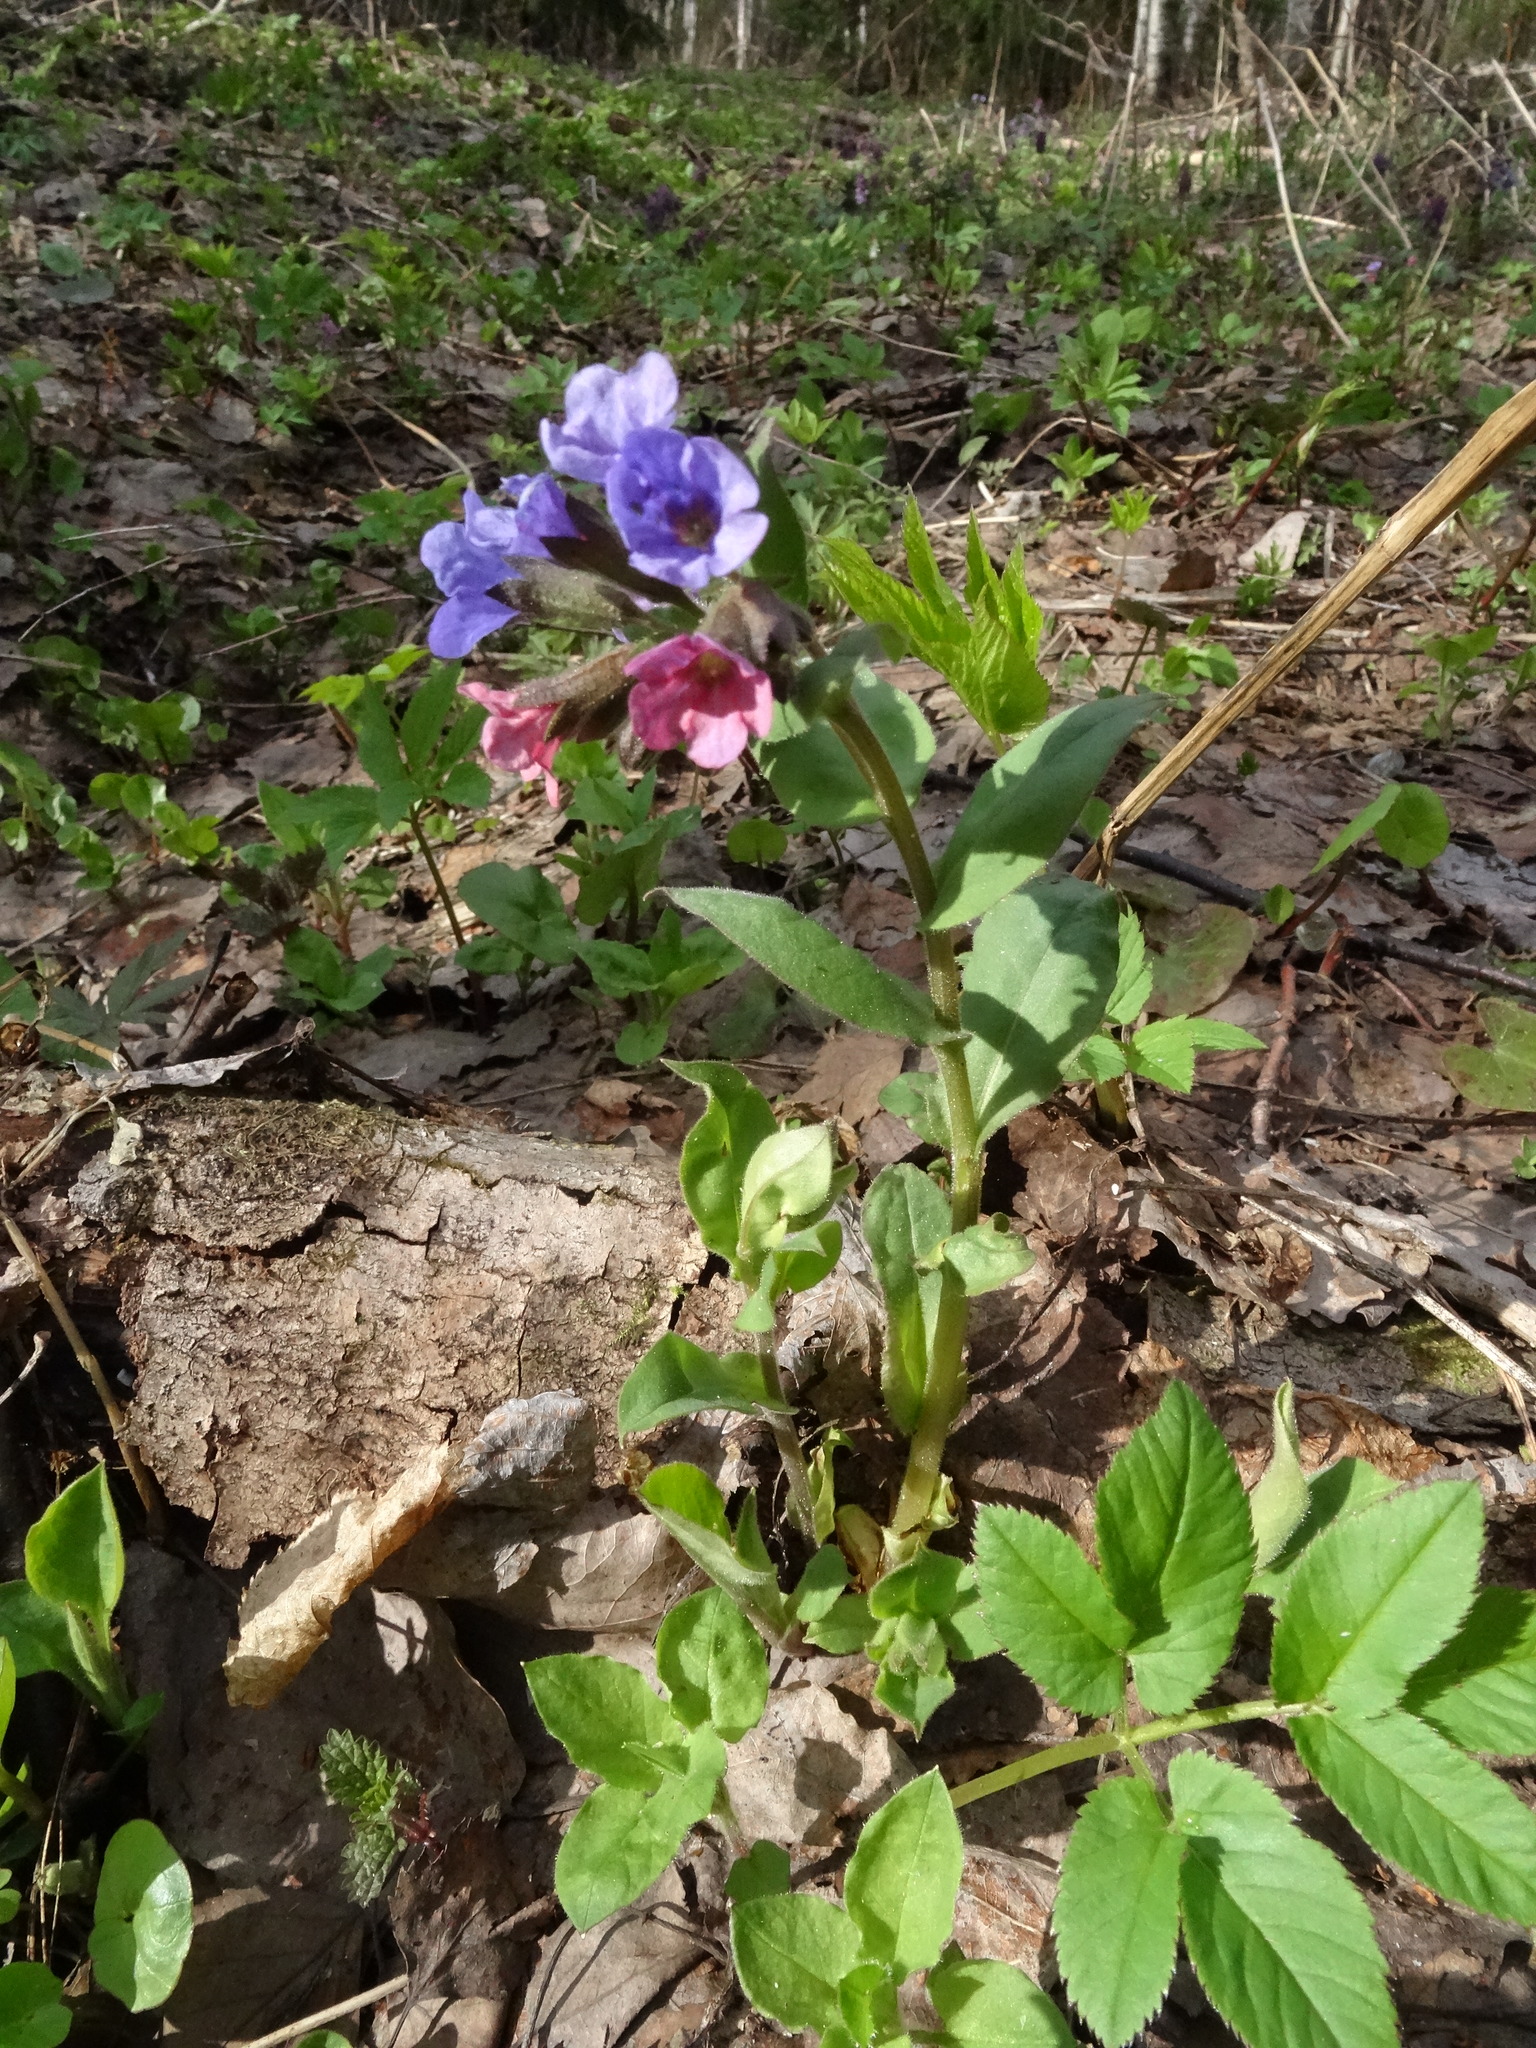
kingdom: Plantae
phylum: Tracheophyta
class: Magnoliopsida
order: Boraginales
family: Boraginaceae
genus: Pulmonaria
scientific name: Pulmonaria obscura
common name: Suffolk lungwort
